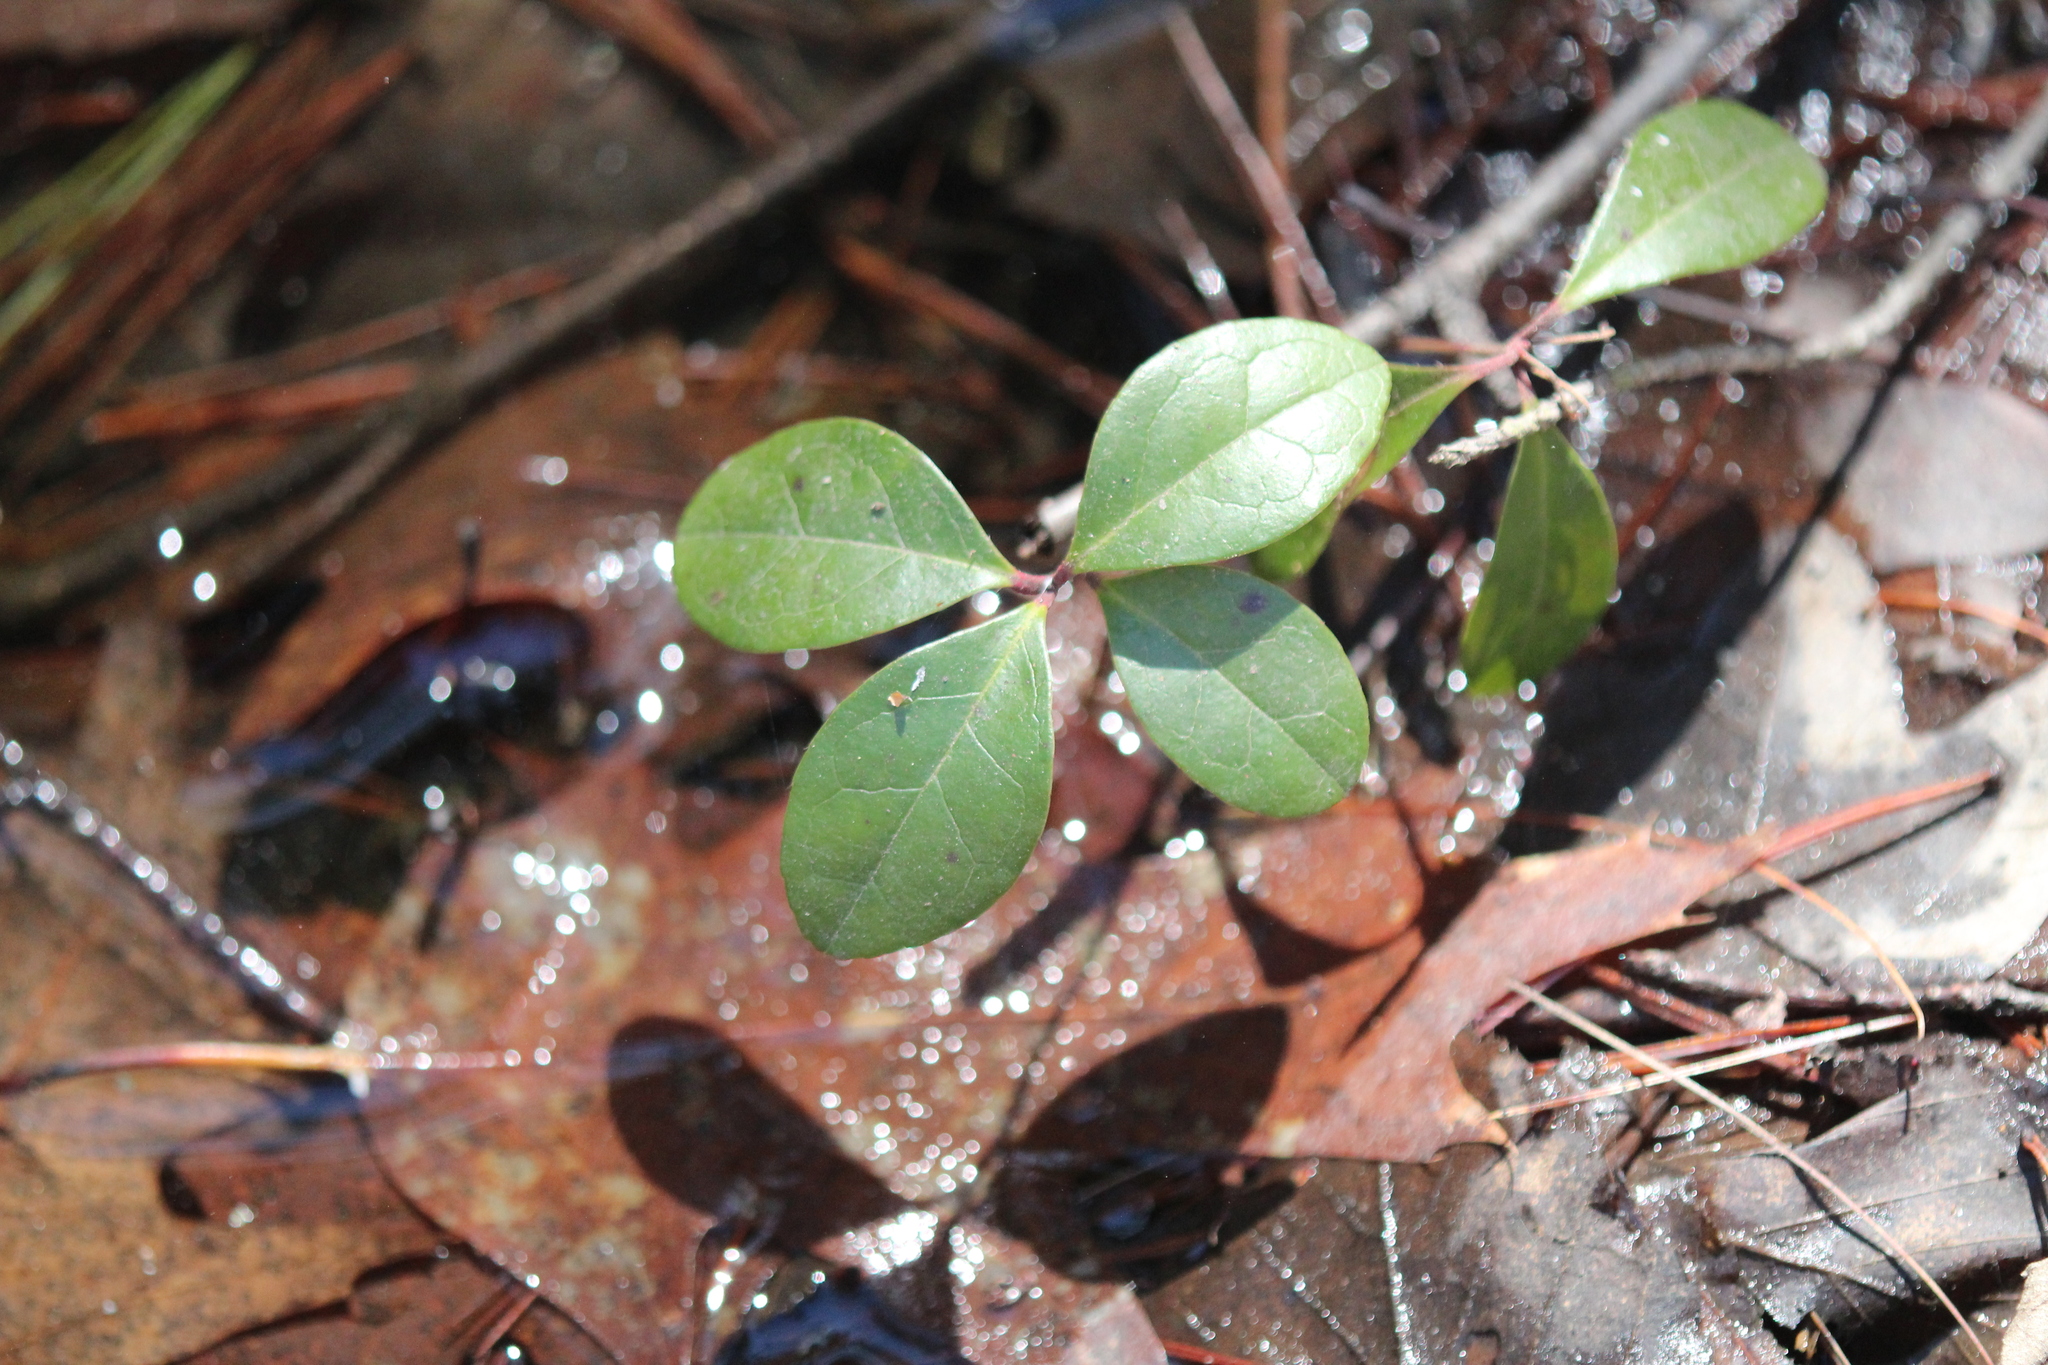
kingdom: Plantae
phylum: Tracheophyta
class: Magnoliopsida
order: Ericales
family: Ericaceae
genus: Gaultheria
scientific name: Gaultheria procumbens
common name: Checkerberry
